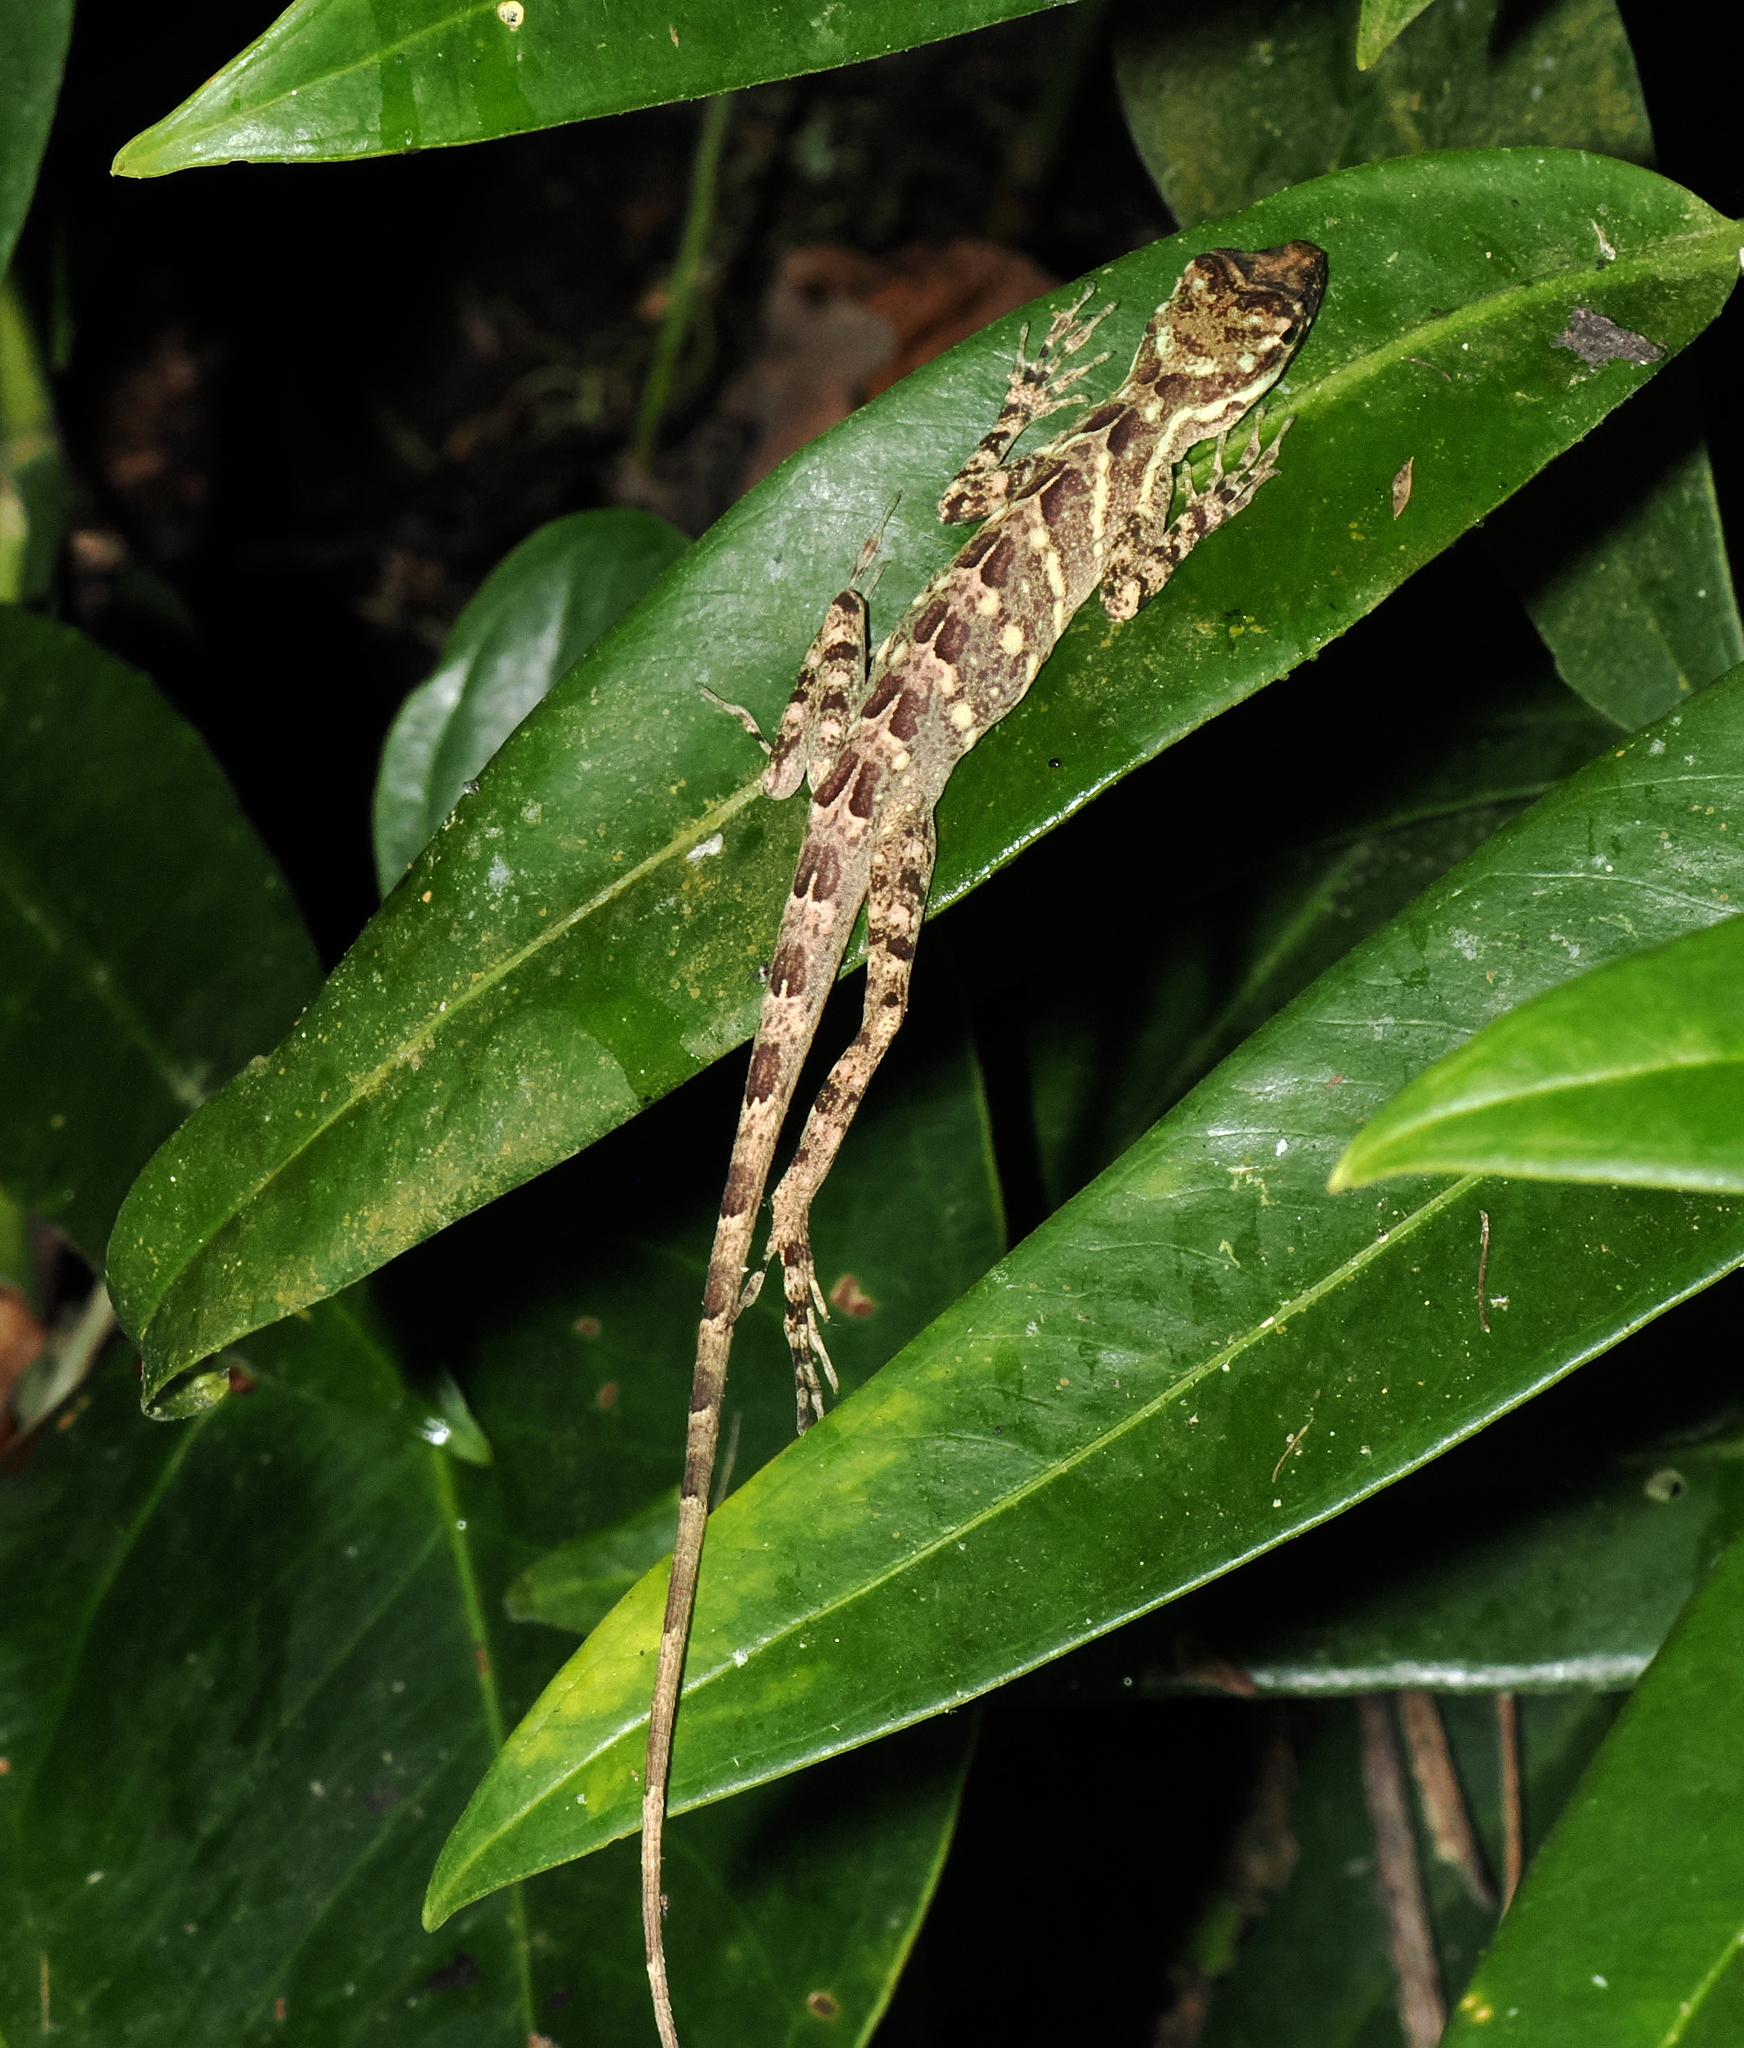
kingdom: Animalia
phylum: Chordata
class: Squamata
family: Dactyloidae
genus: Anolis
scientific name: Anolis eulaemus
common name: Good anole
